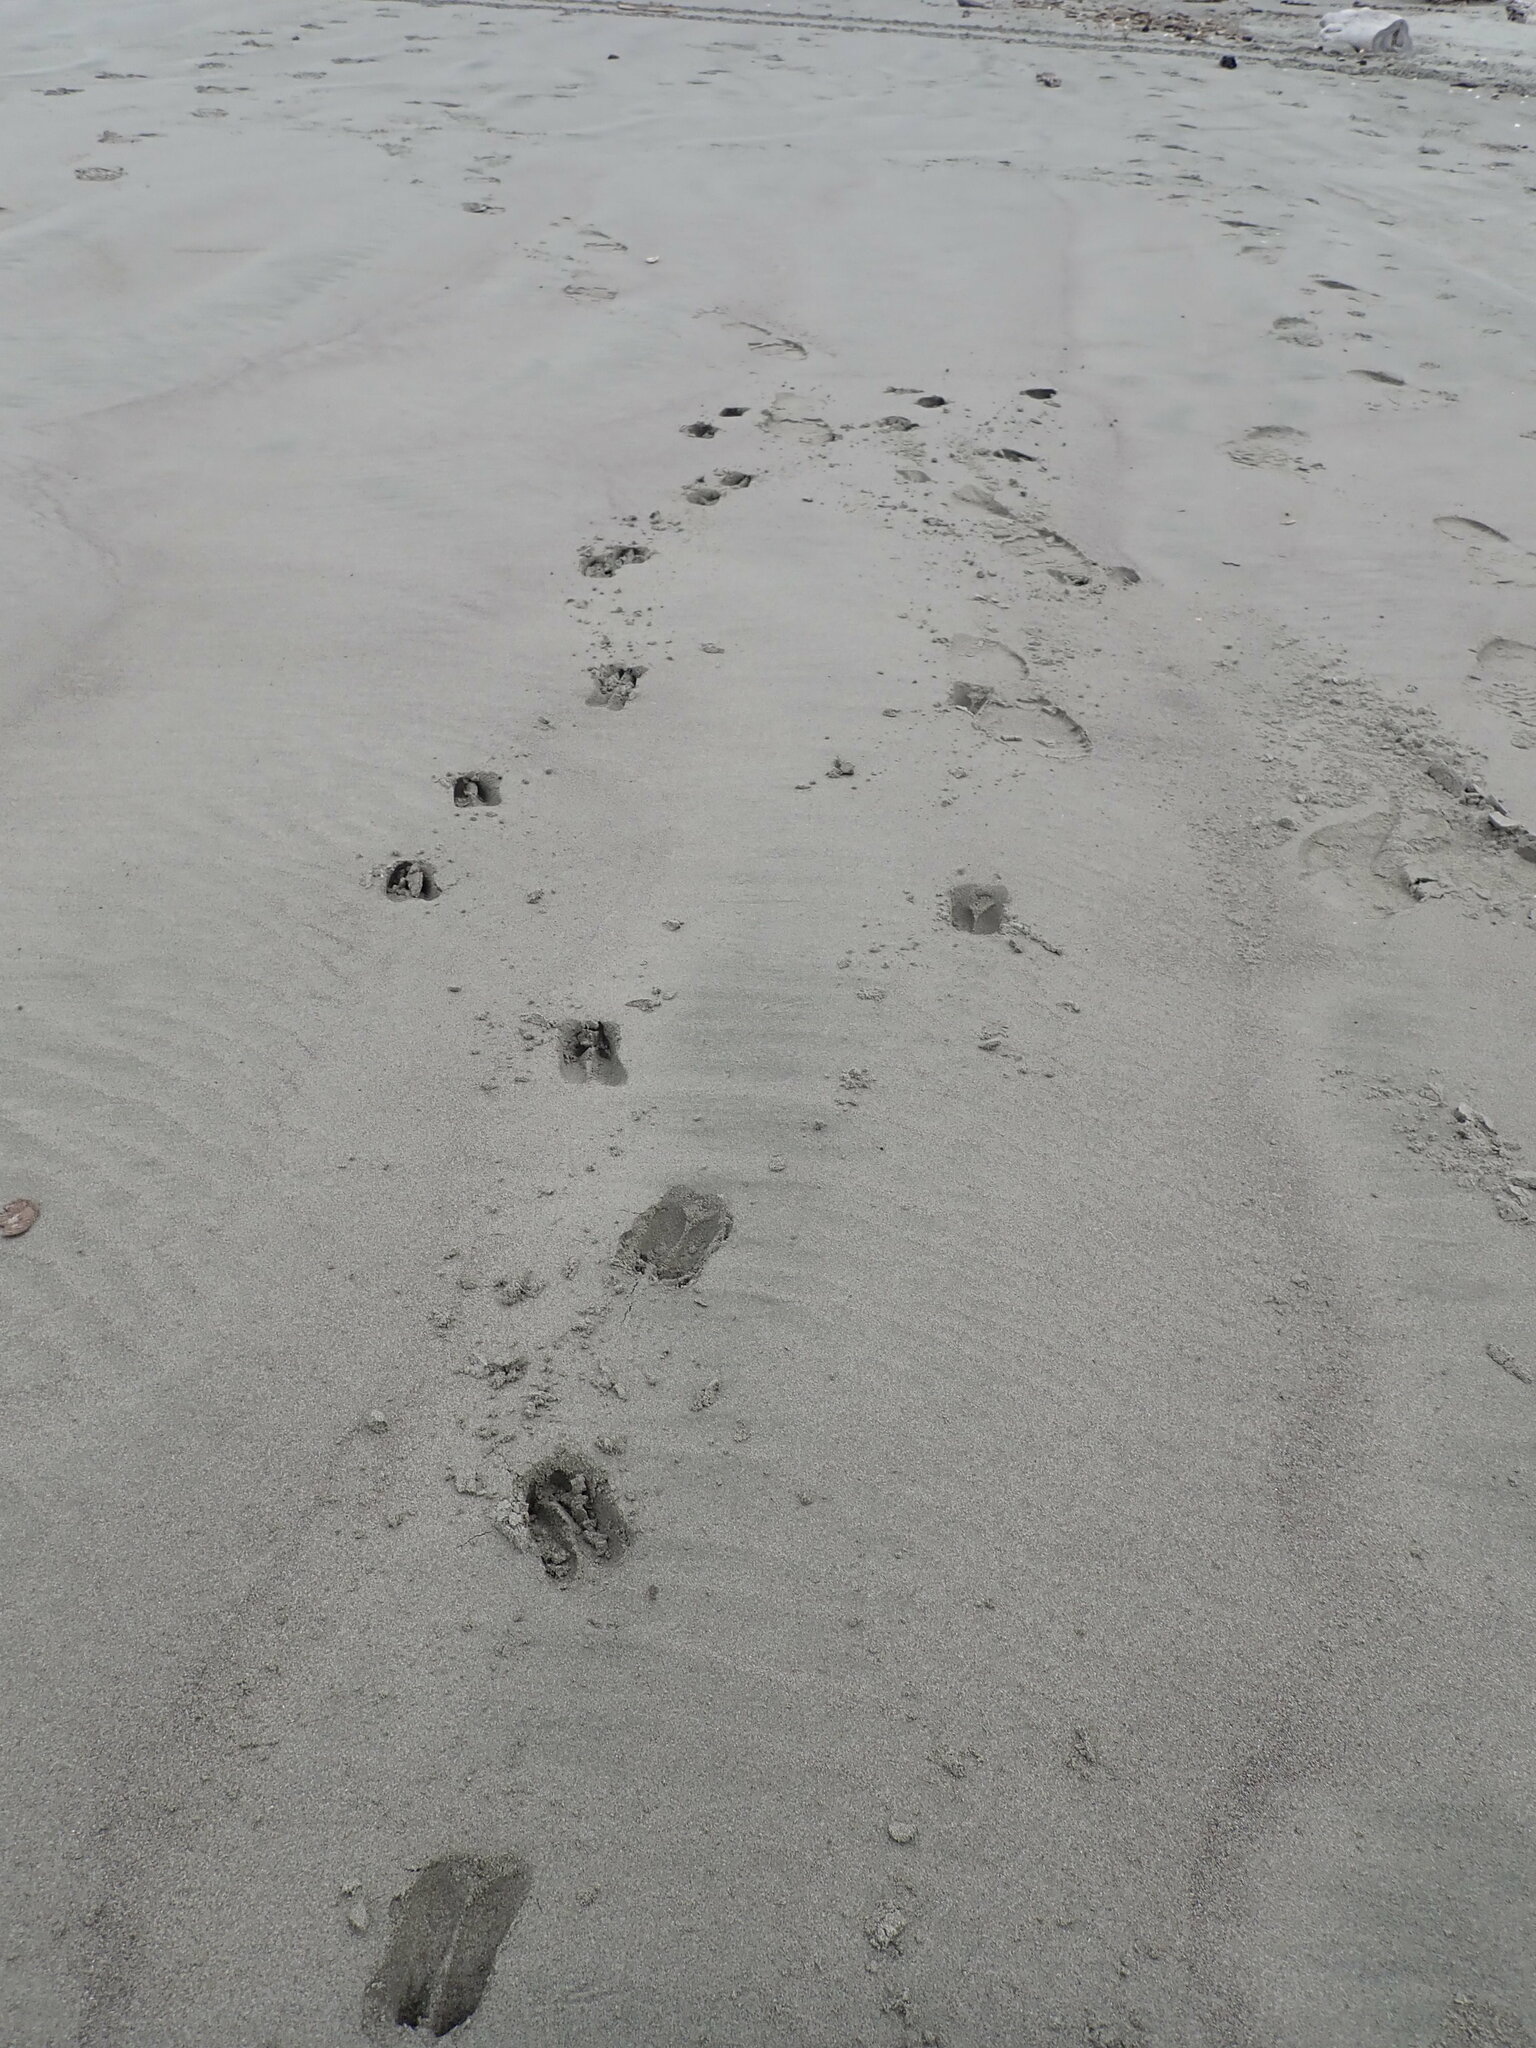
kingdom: Animalia
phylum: Chordata
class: Mammalia
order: Artiodactyla
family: Cervidae
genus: Rusa
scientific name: Rusa unicolor
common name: Sambar
